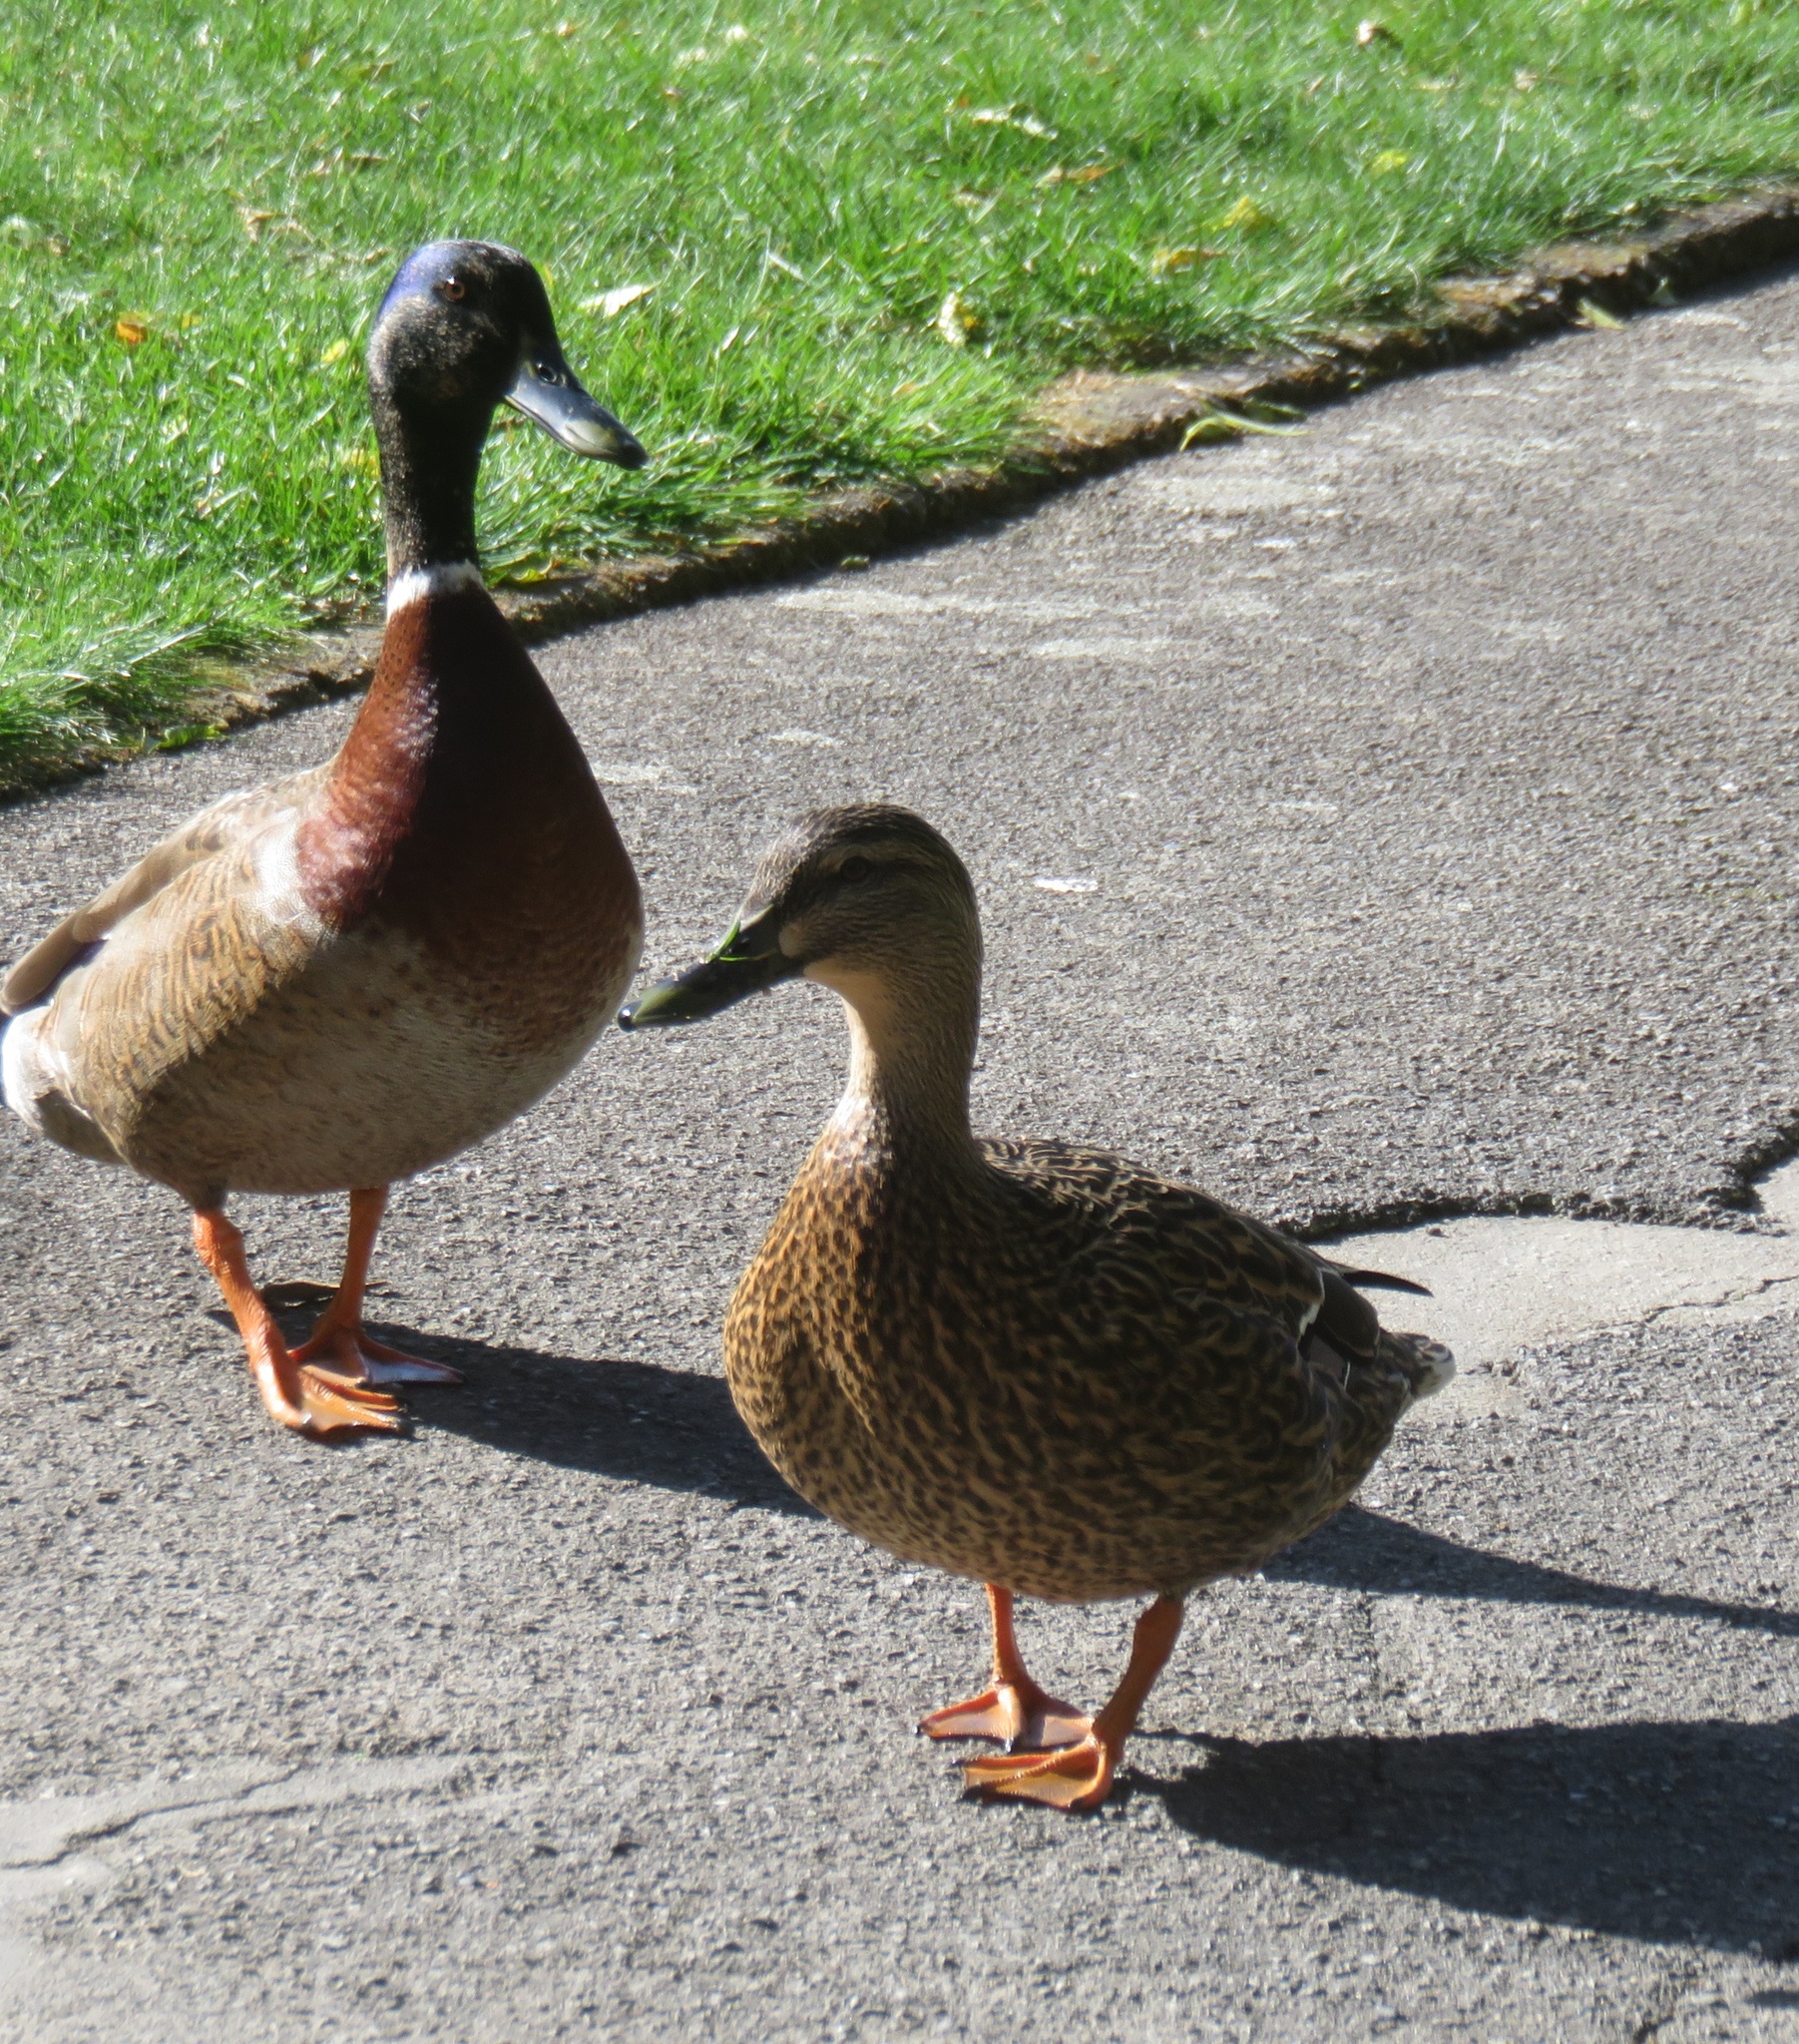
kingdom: Animalia
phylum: Chordata
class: Aves
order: Anseriformes
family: Anatidae
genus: Anas
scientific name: Anas platyrhynchos
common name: Mallard
